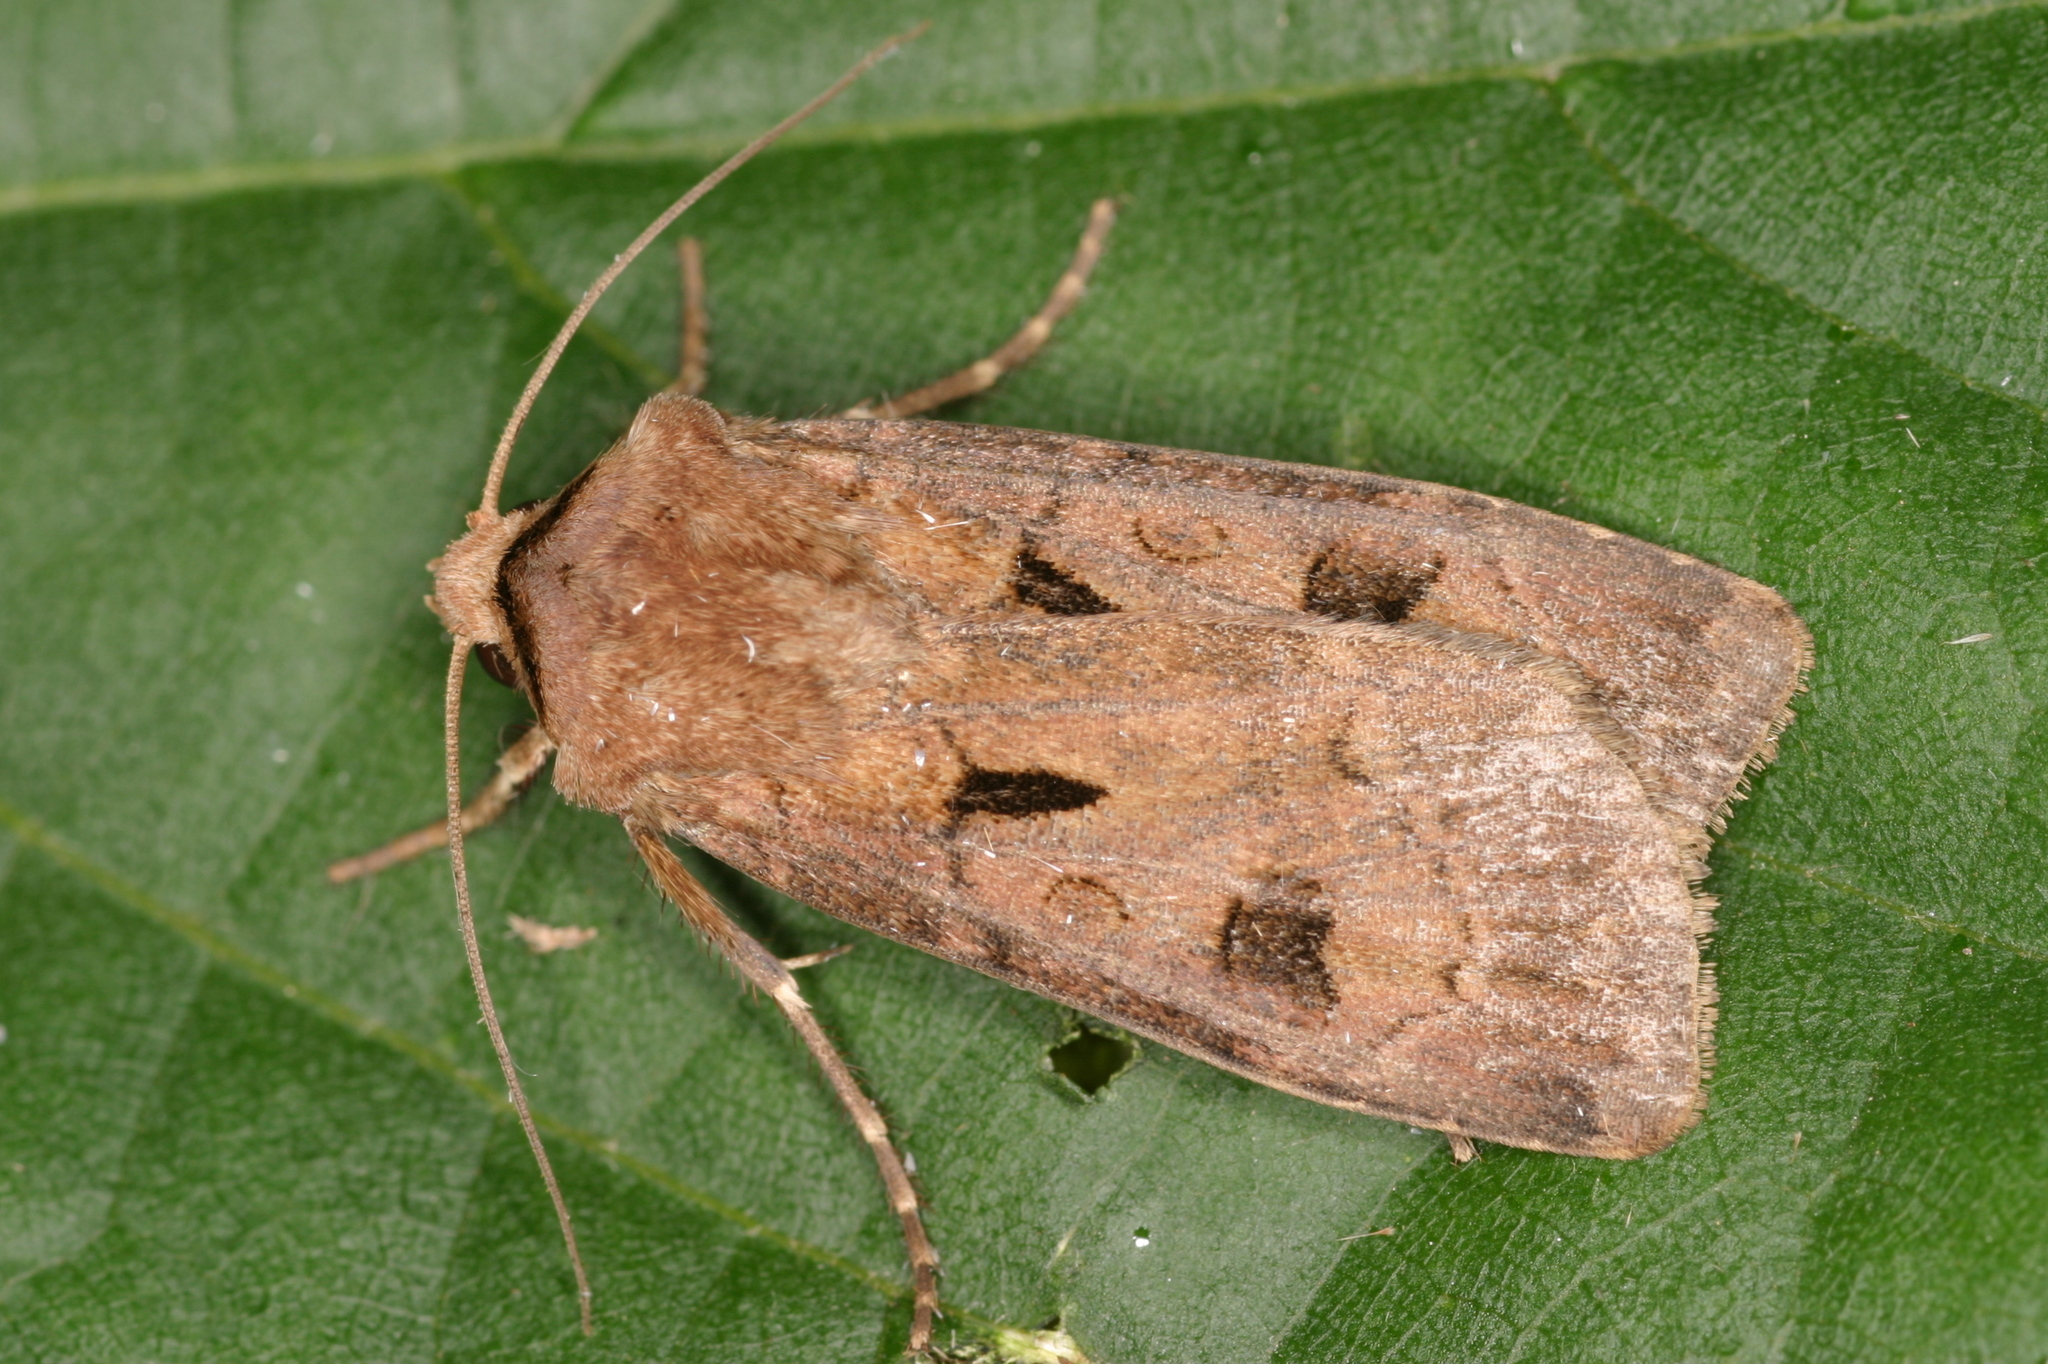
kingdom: Animalia
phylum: Arthropoda
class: Insecta
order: Lepidoptera
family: Noctuidae
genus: Agrotis
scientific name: Agrotis exclamationis
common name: Heart and dart
